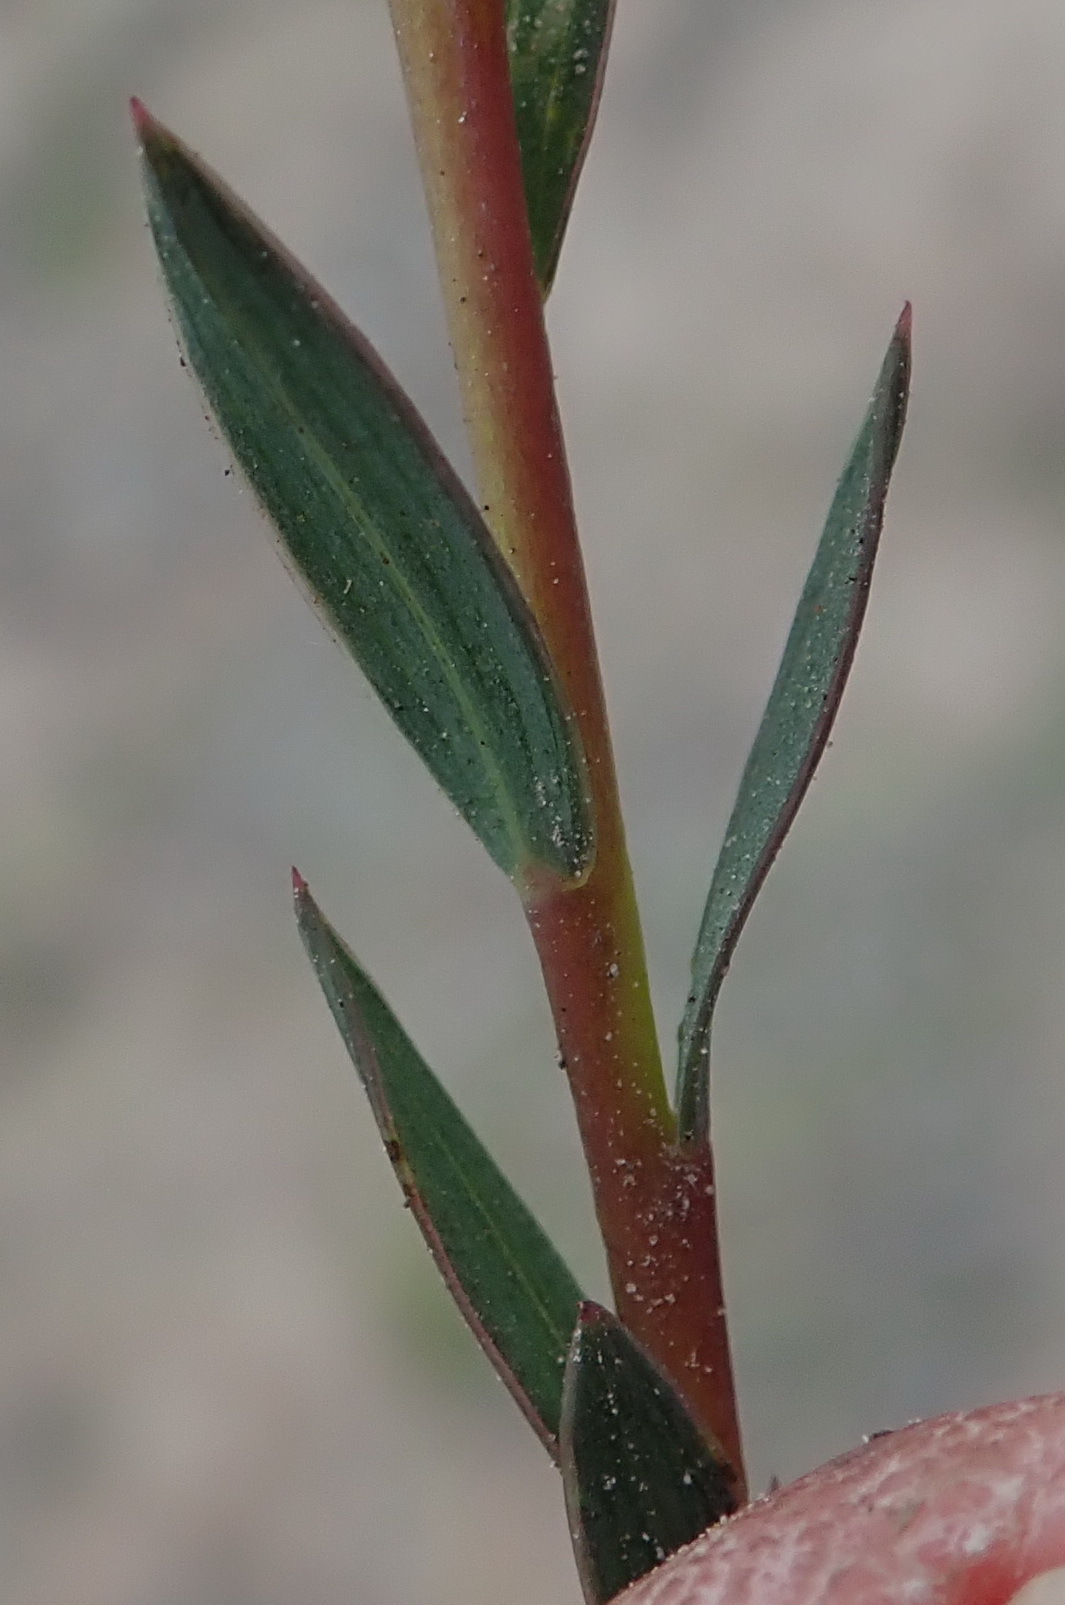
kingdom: Plantae
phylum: Tracheophyta
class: Magnoliopsida
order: Fabales
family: Fabaceae
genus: Aspalathus
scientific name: Aspalathus angustifolia
